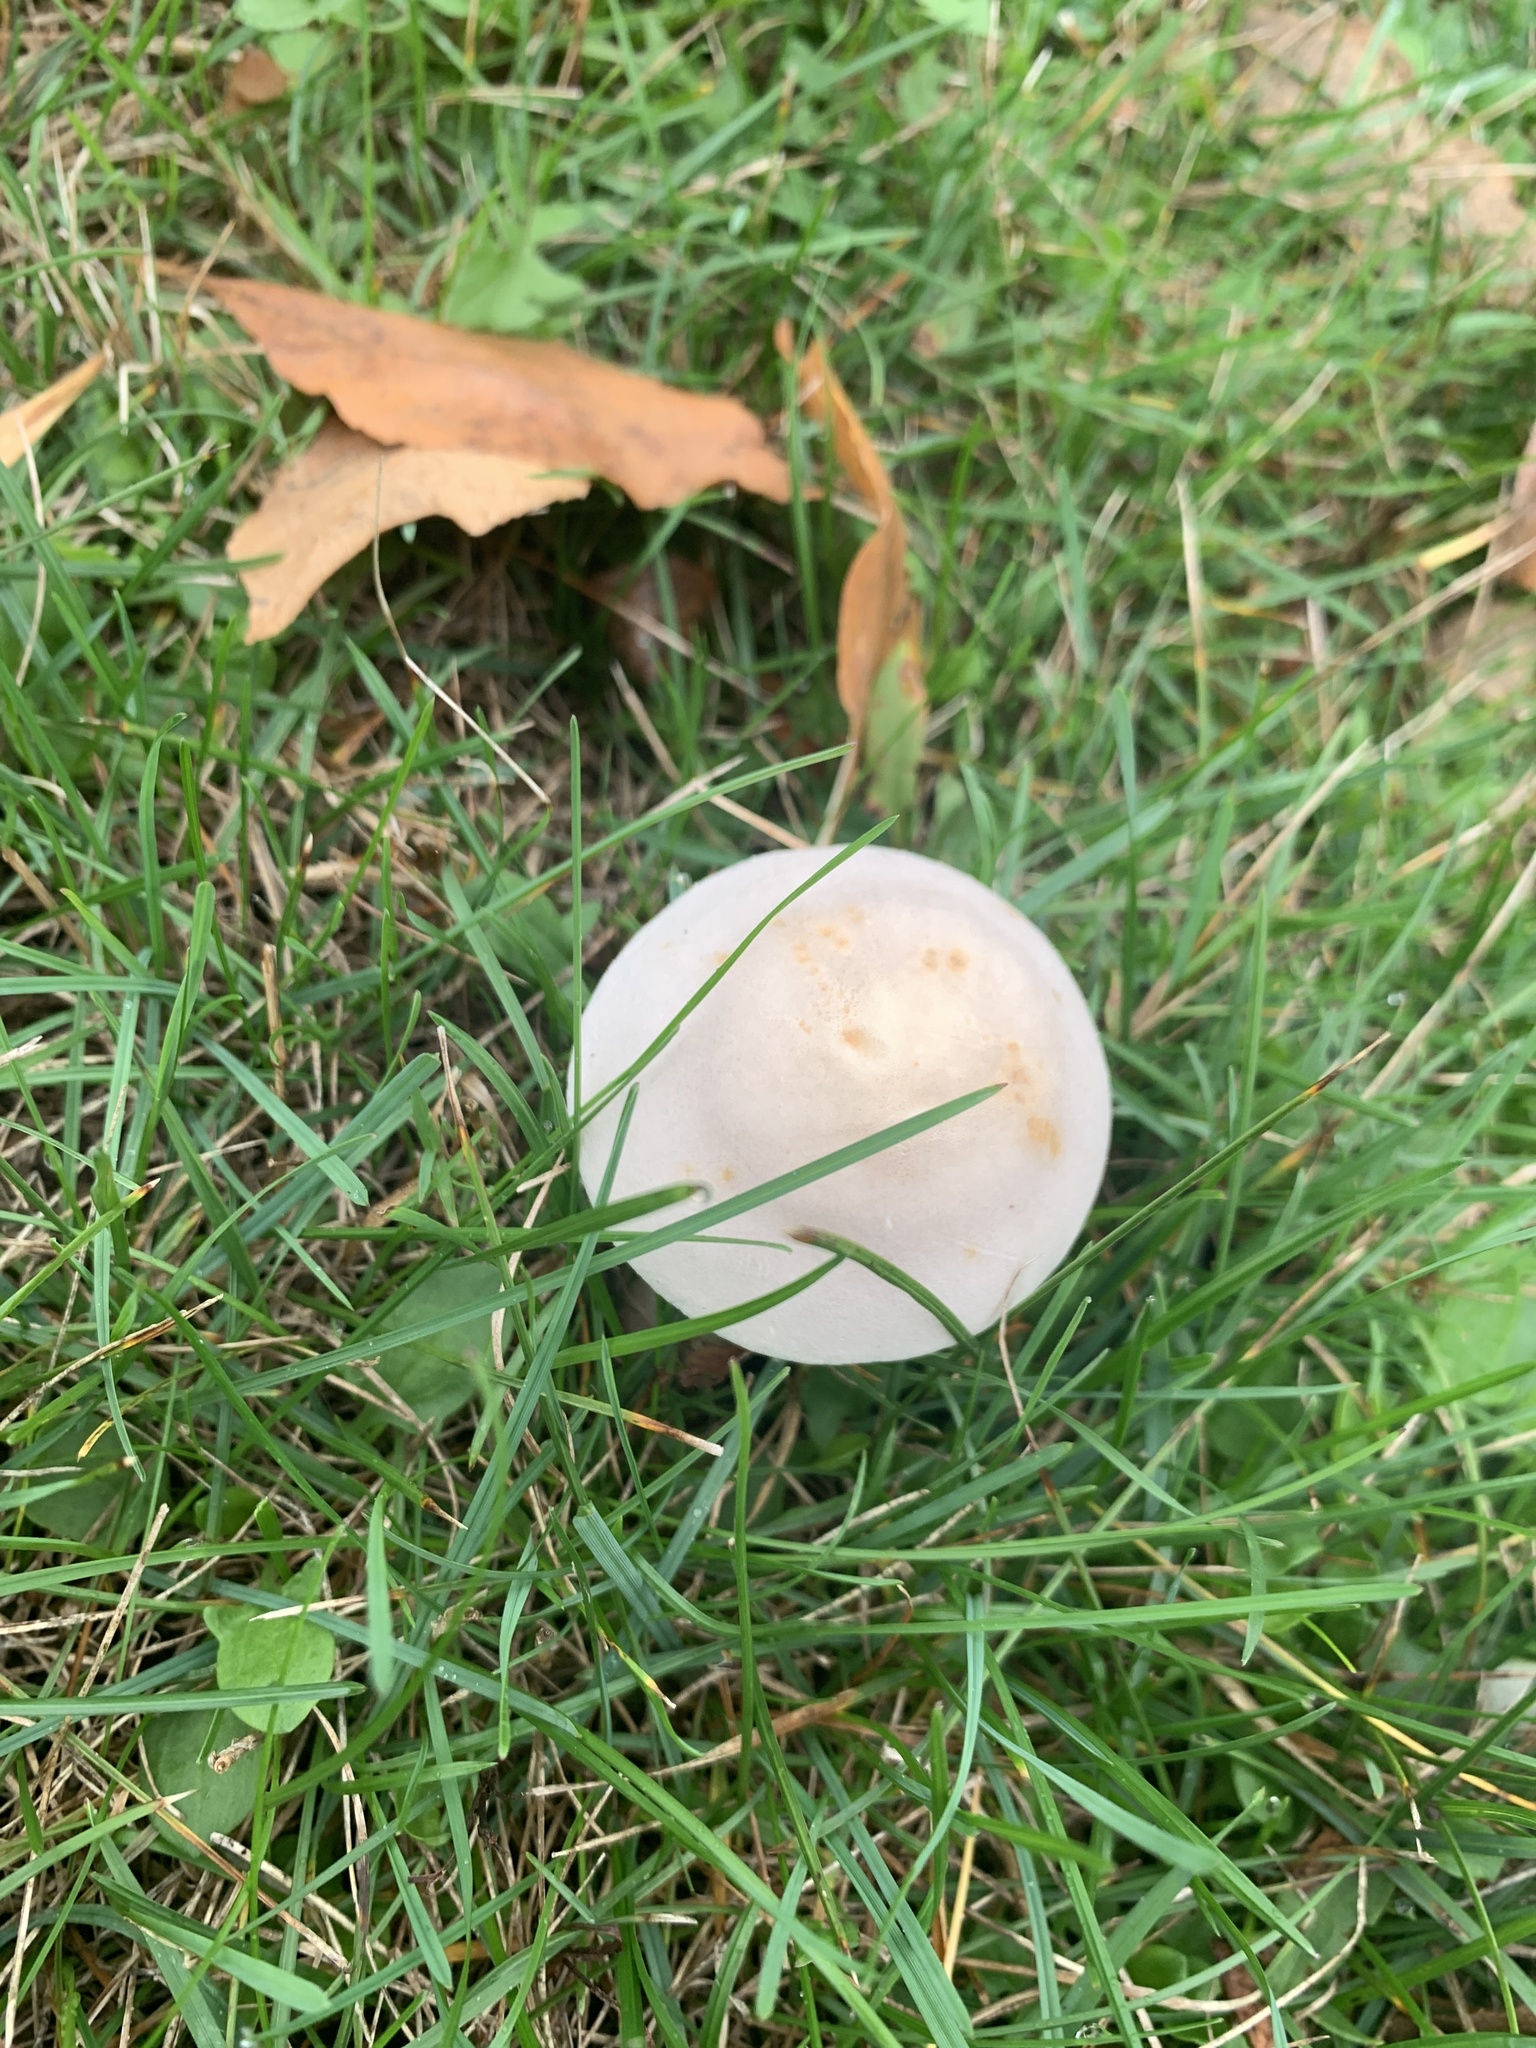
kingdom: Fungi
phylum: Basidiomycota
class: Agaricomycetes
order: Agaricales
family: Agaricaceae
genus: Leucoagaricus
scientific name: Leucoagaricus leucothites
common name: White dapperling
